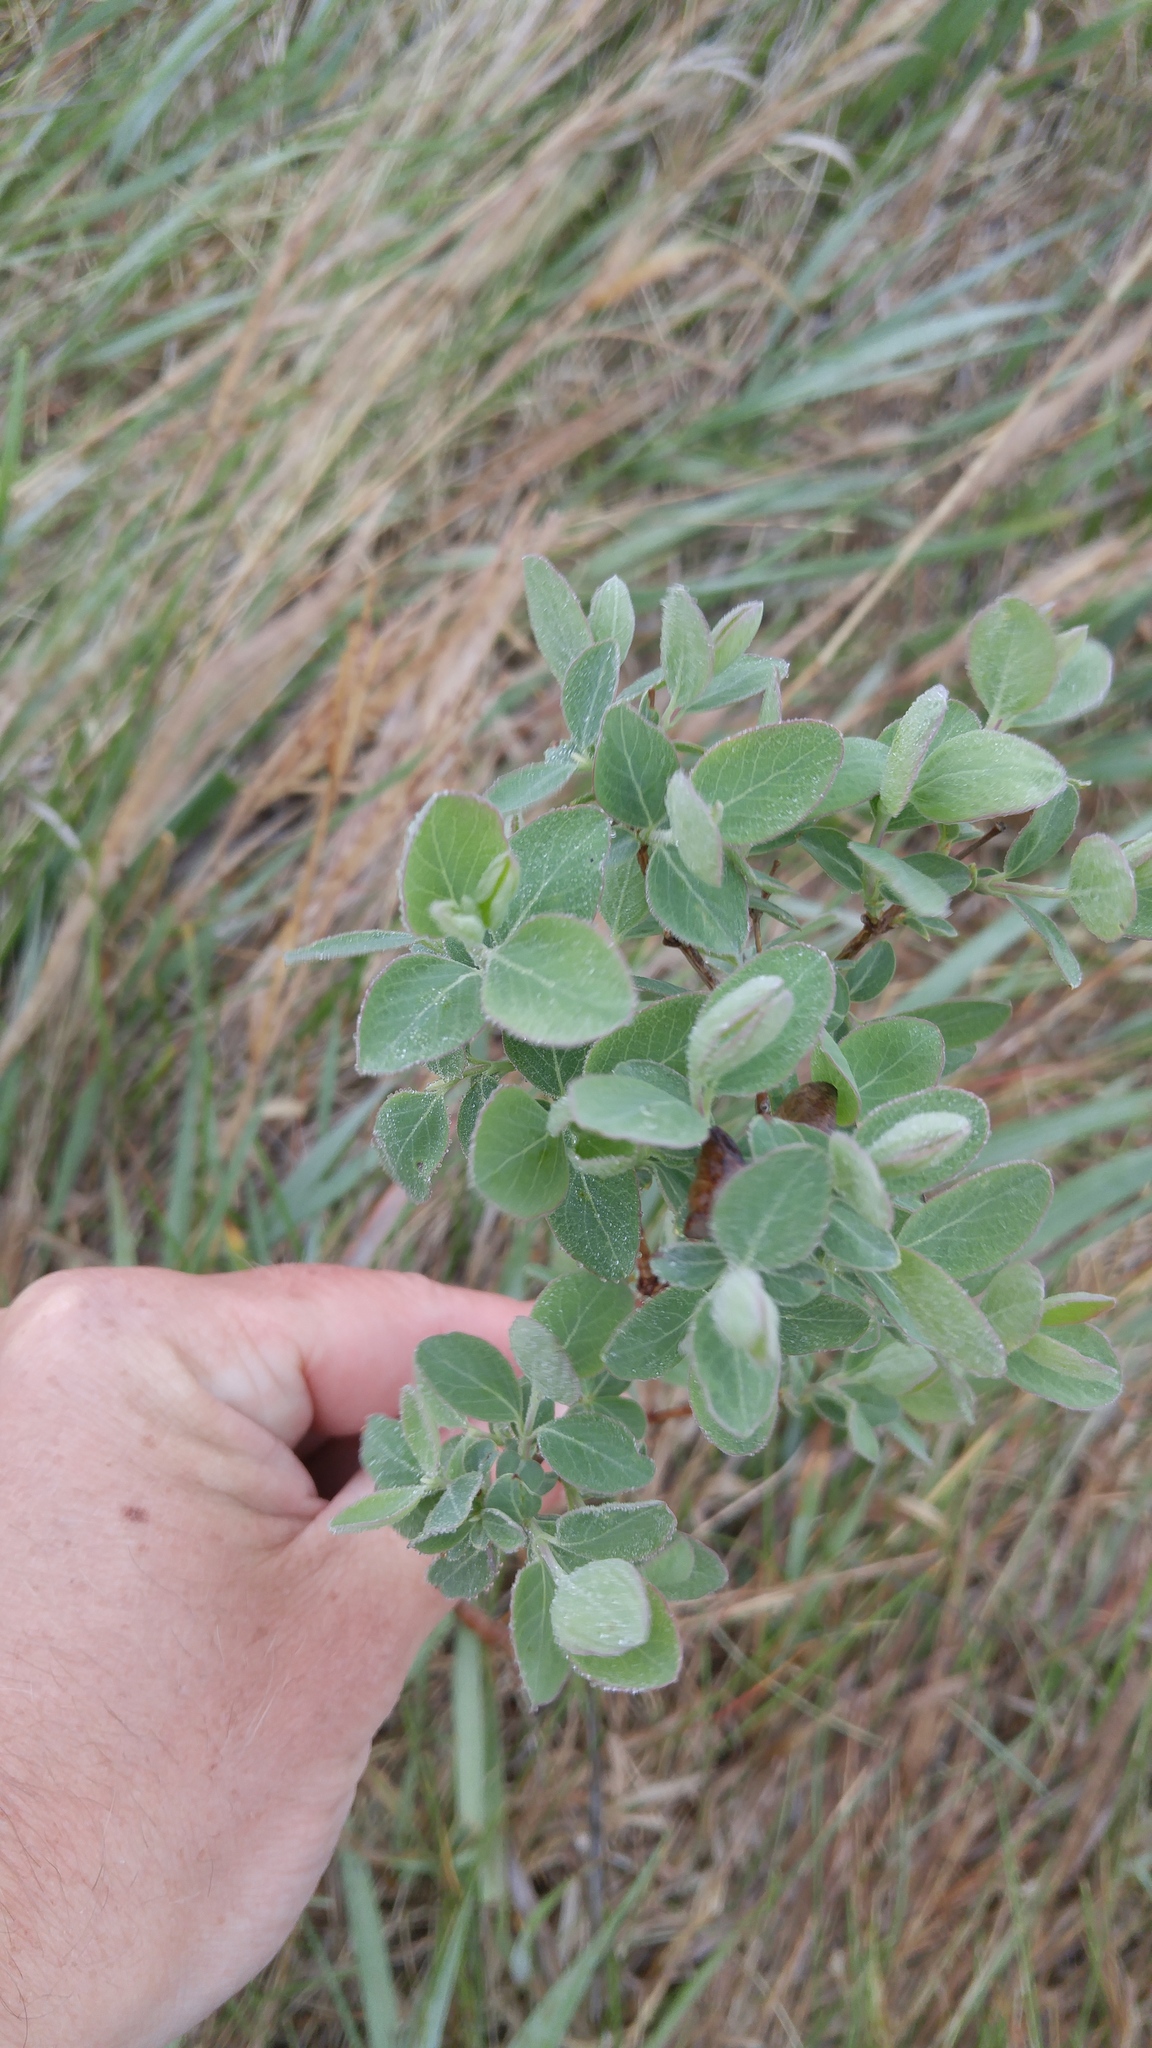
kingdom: Plantae
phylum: Tracheophyta
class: Magnoliopsida
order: Dipsacales
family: Caprifoliaceae
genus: Symphoricarpos
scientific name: Symphoricarpos occidentalis
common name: Wolfberry
